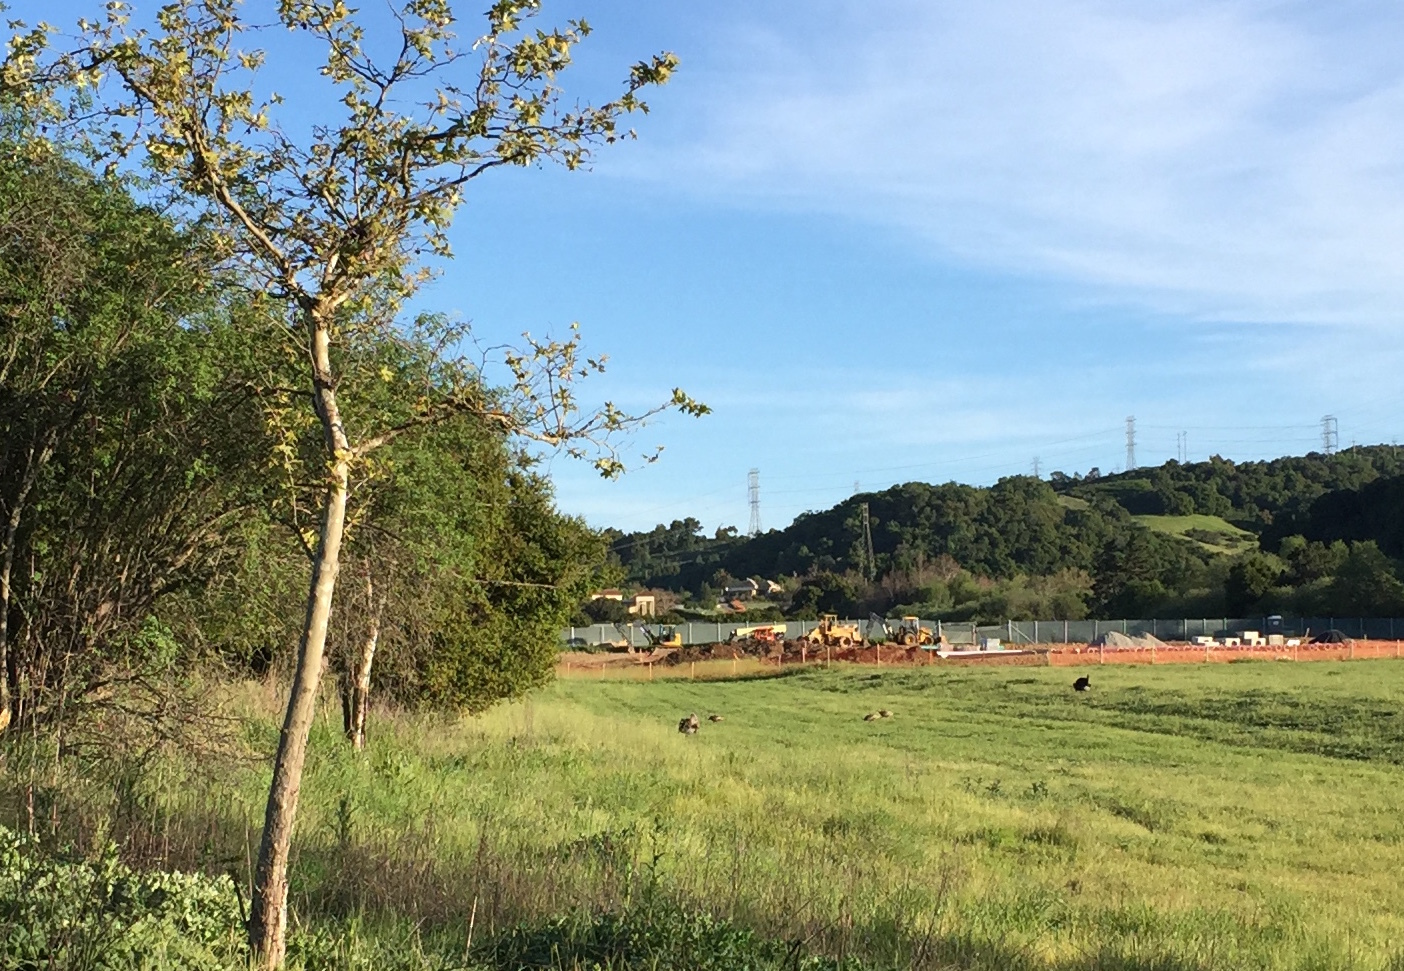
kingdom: Animalia
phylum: Chordata
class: Aves
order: Galliformes
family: Phasianidae
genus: Meleagris
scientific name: Meleagris gallopavo
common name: Wild turkey
